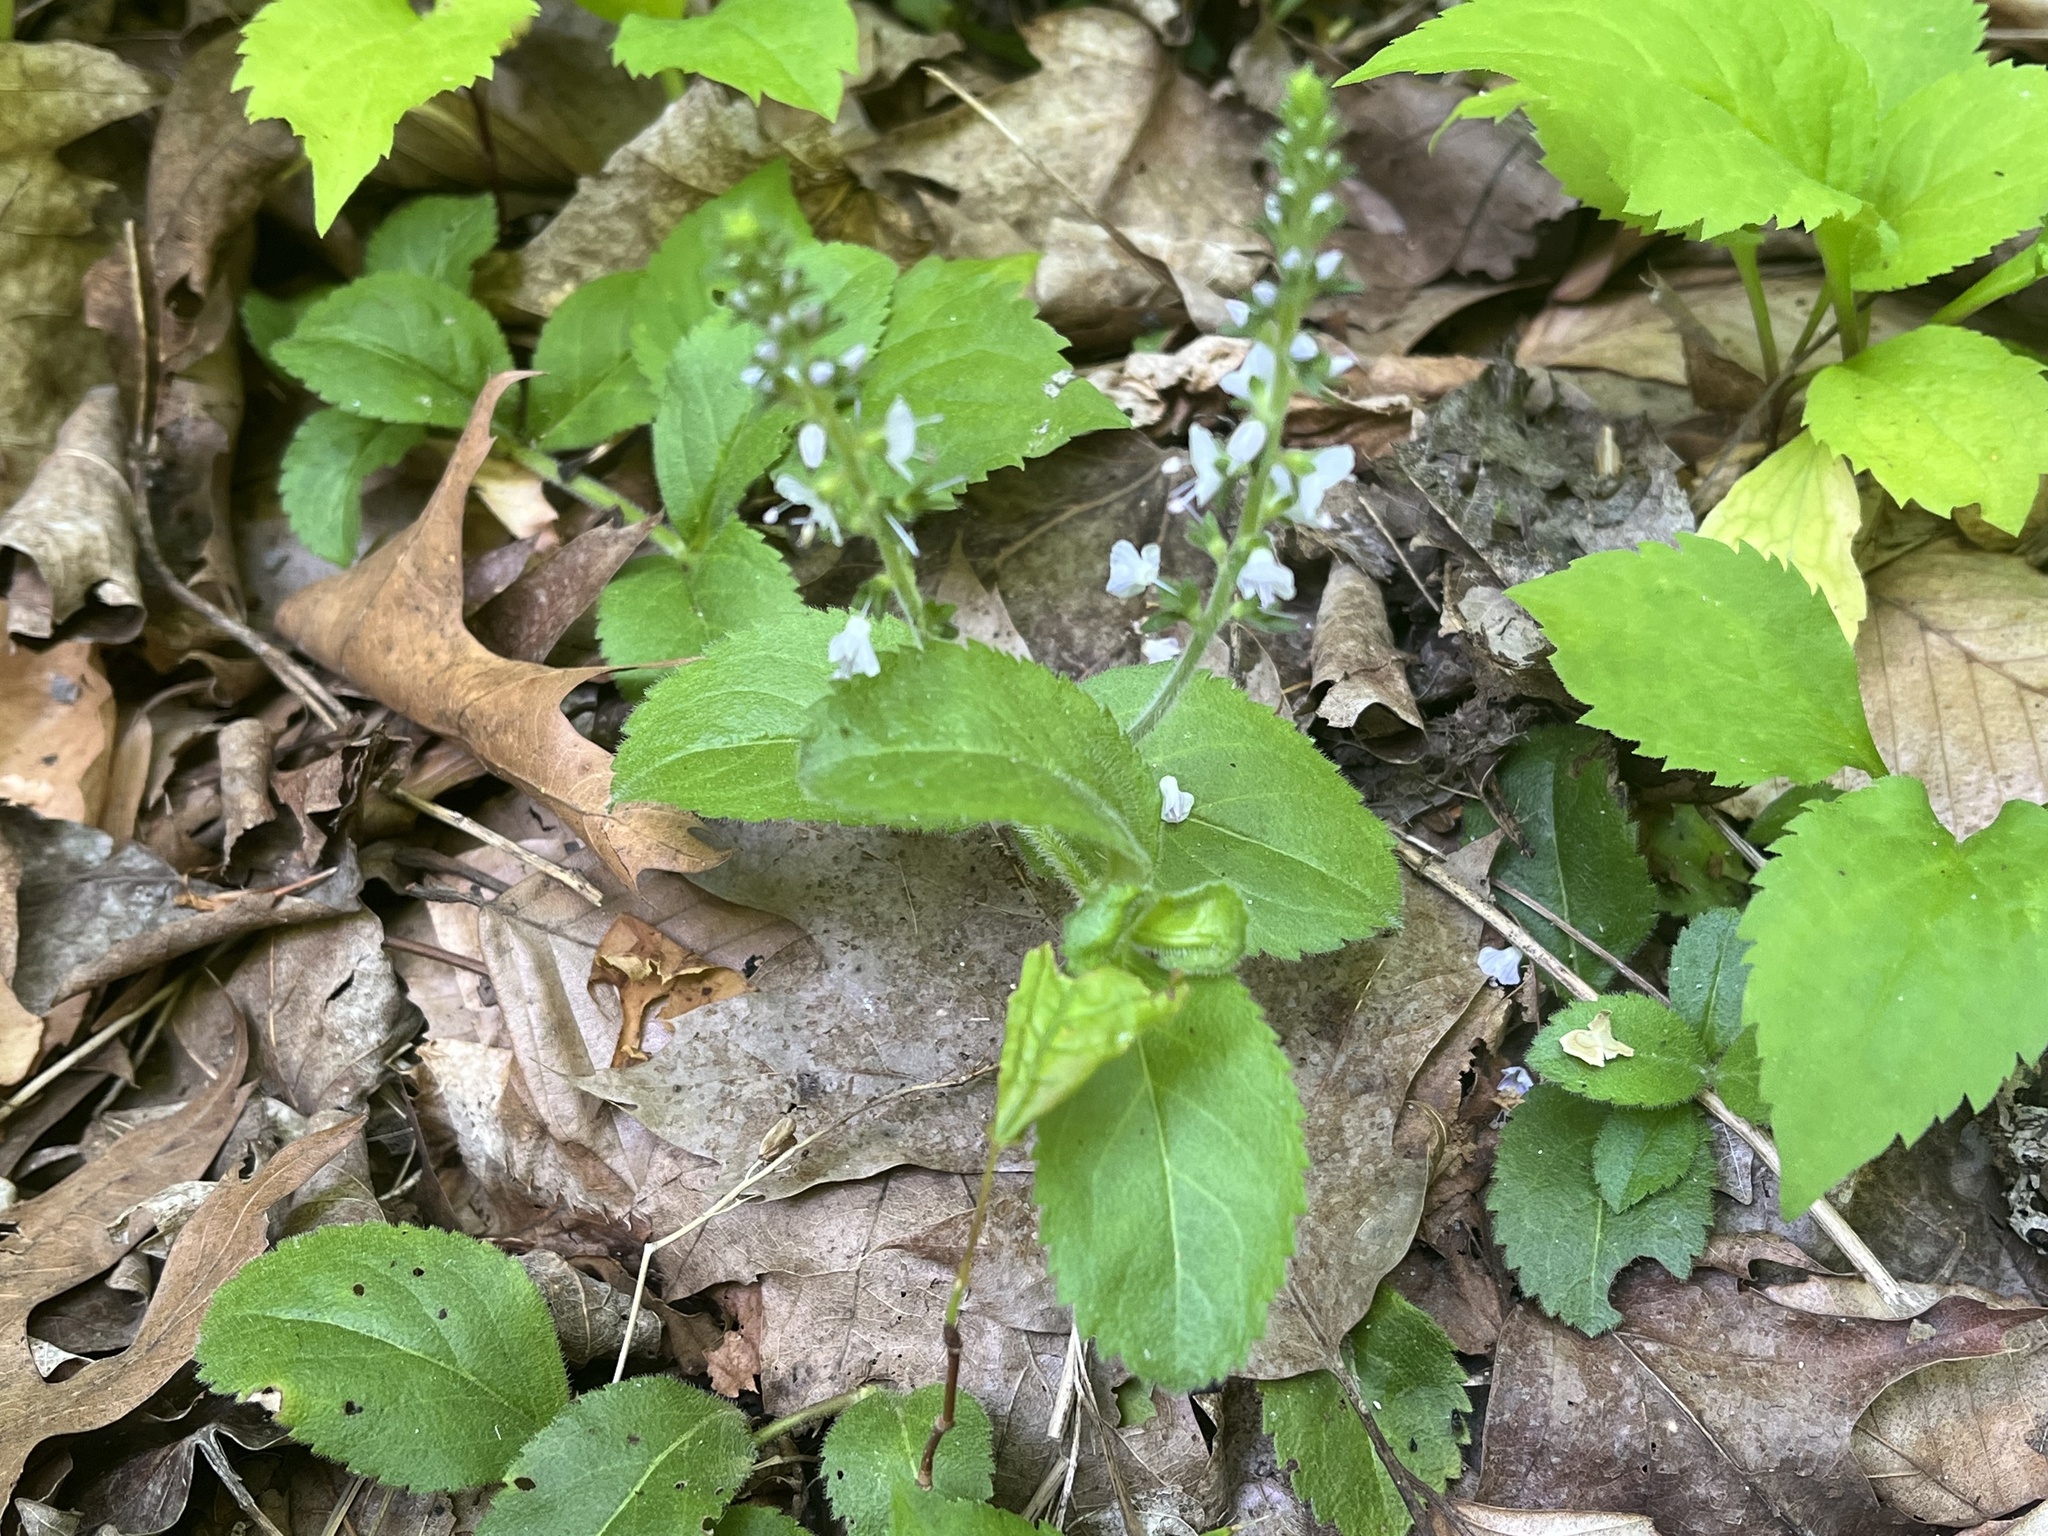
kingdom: Plantae
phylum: Tracheophyta
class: Magnoliopsida
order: Lamiales
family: Plantaginaceae
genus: Veronica
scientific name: Veronica officinalis
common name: Common speedwell
